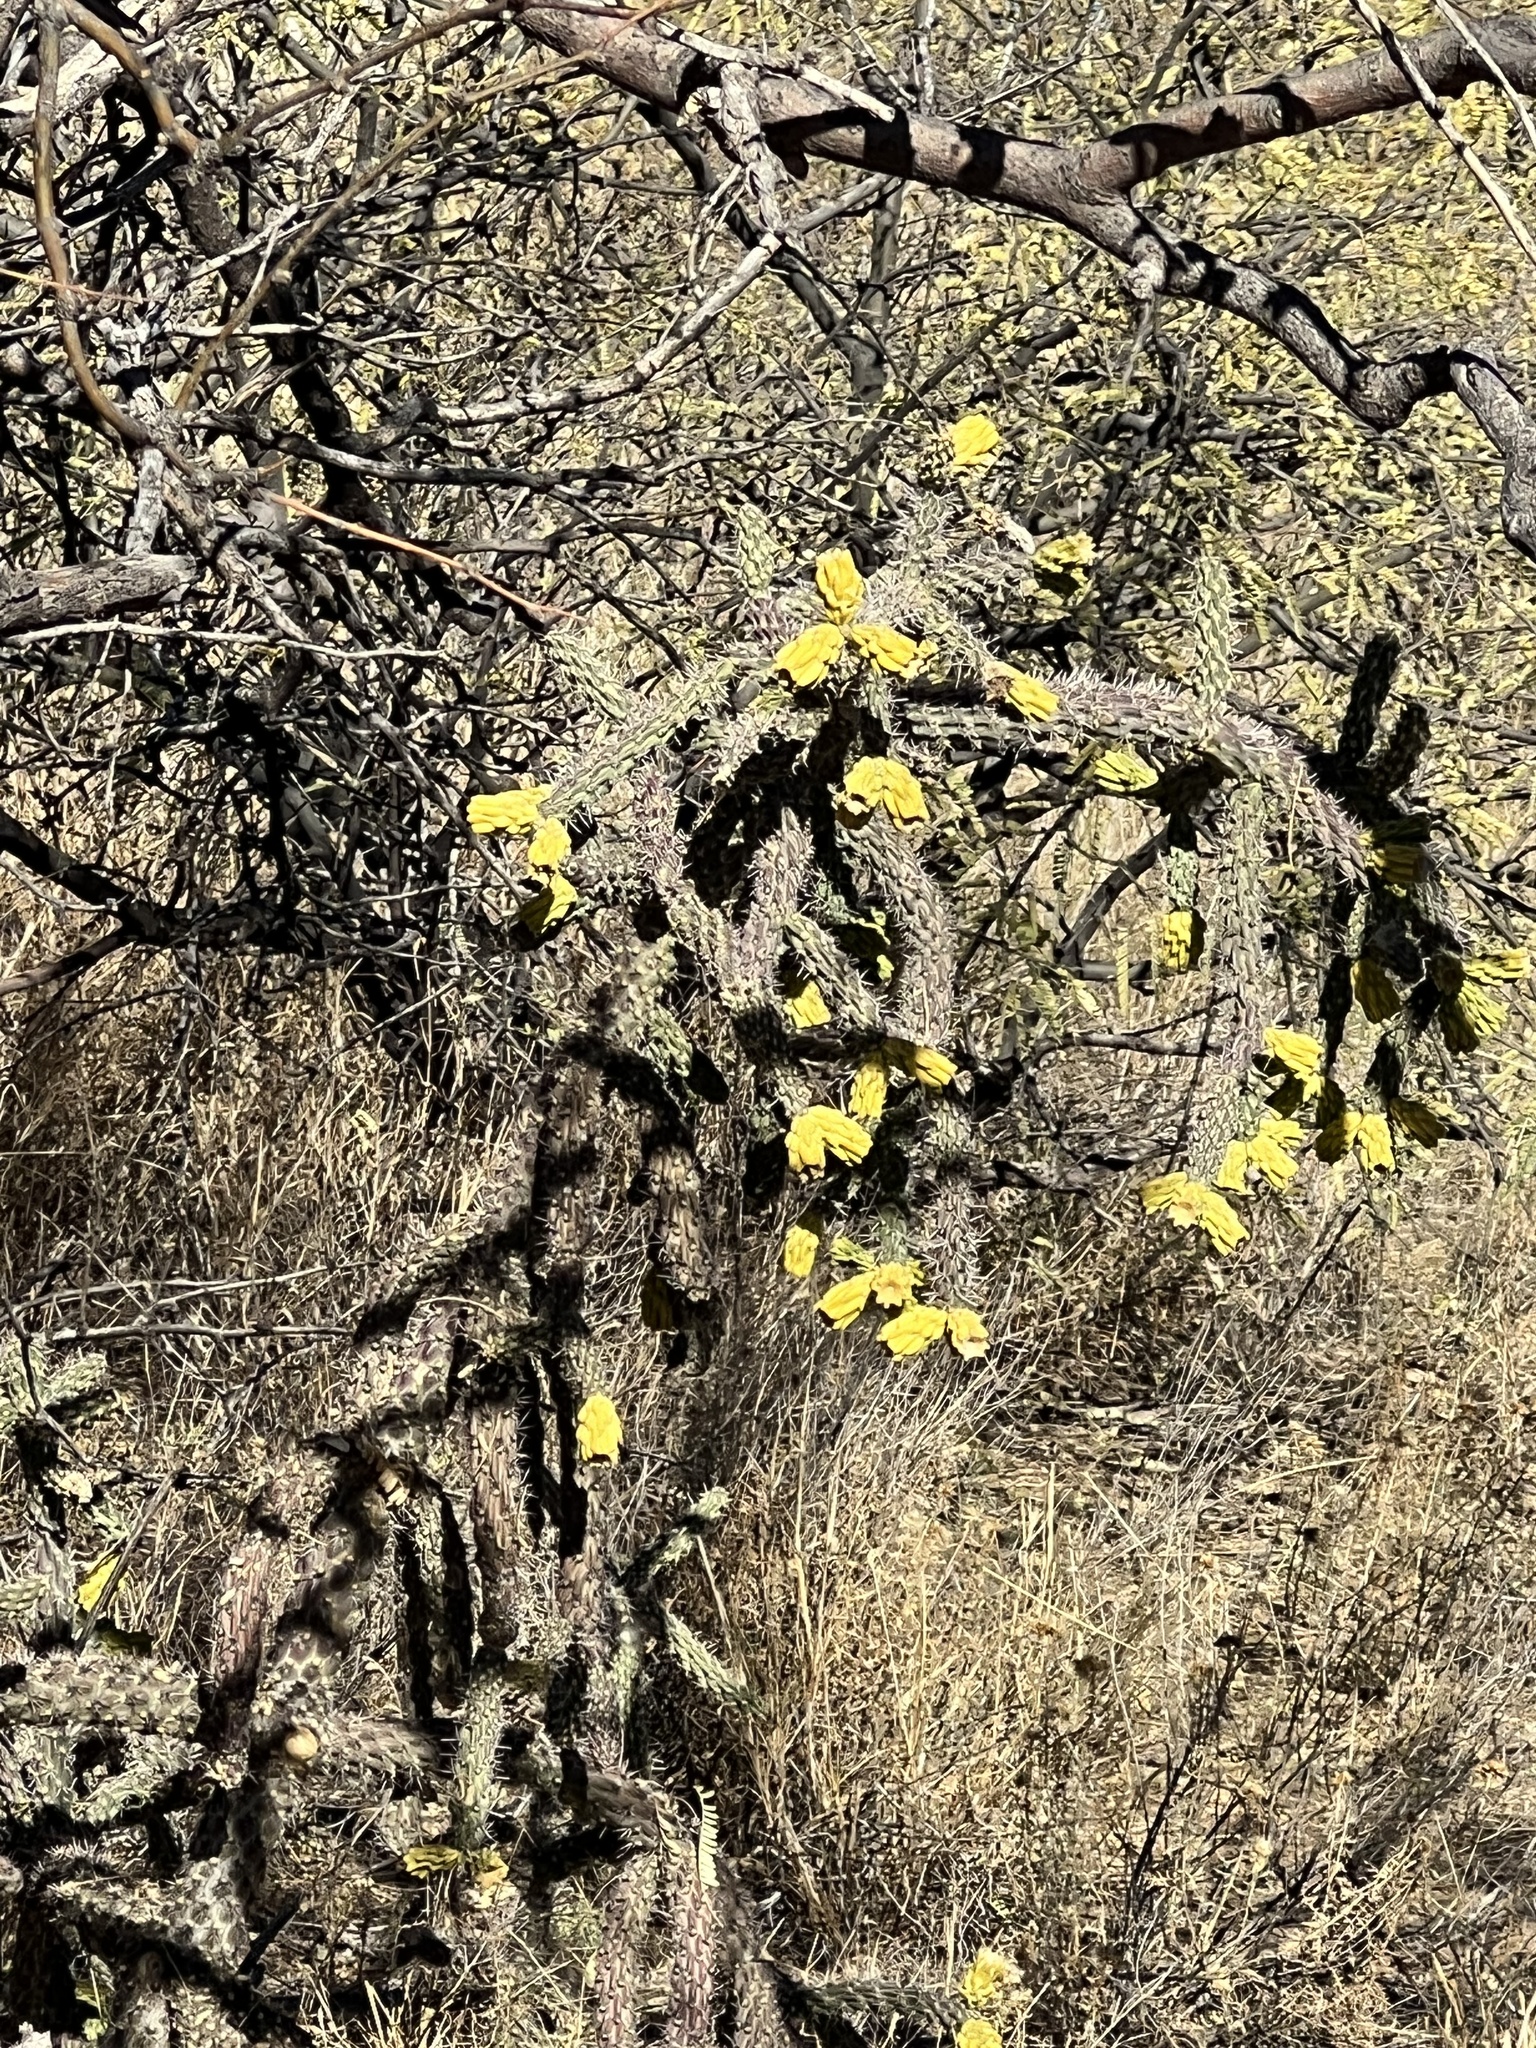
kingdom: Plantae
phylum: Tracheophyta
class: Magnoliopsida
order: Caryophyllales
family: Cactaceae
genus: Cylindropuntia
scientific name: Cylindropuntia imbricata
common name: Candelabrum cactus
